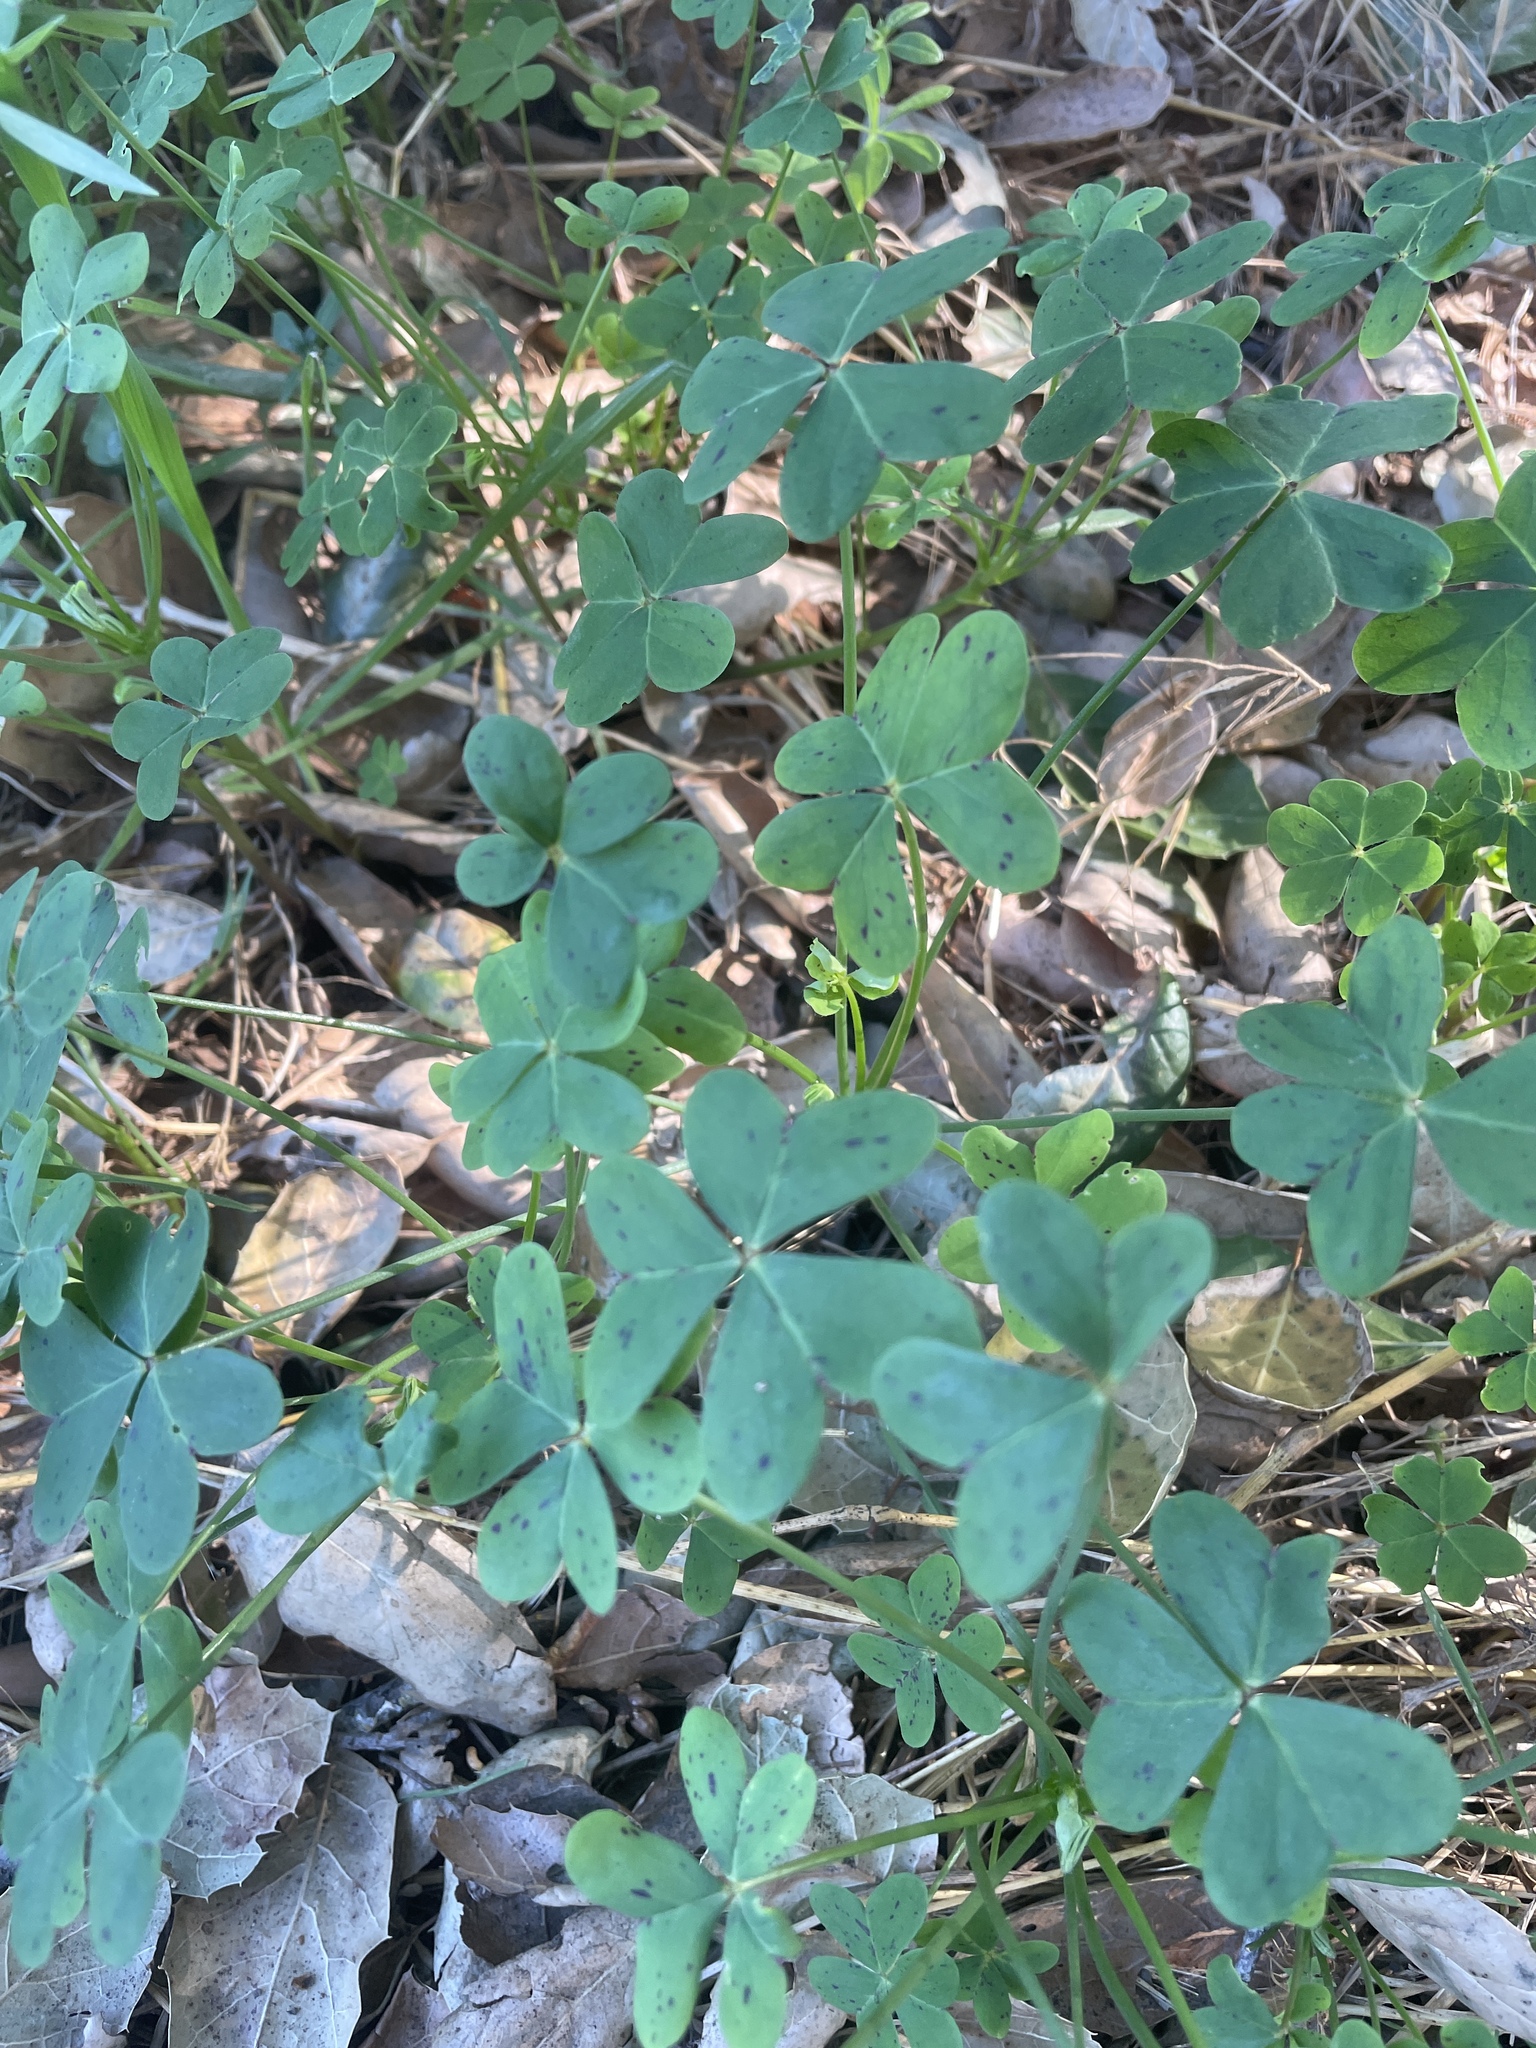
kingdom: Plantae
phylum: Tracheophyta
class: Magnoliopsida
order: Oxalidales
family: Oxalidaceae
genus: Oxalis
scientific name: Oxalis pes-caprae
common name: Bermuda-buttercup
